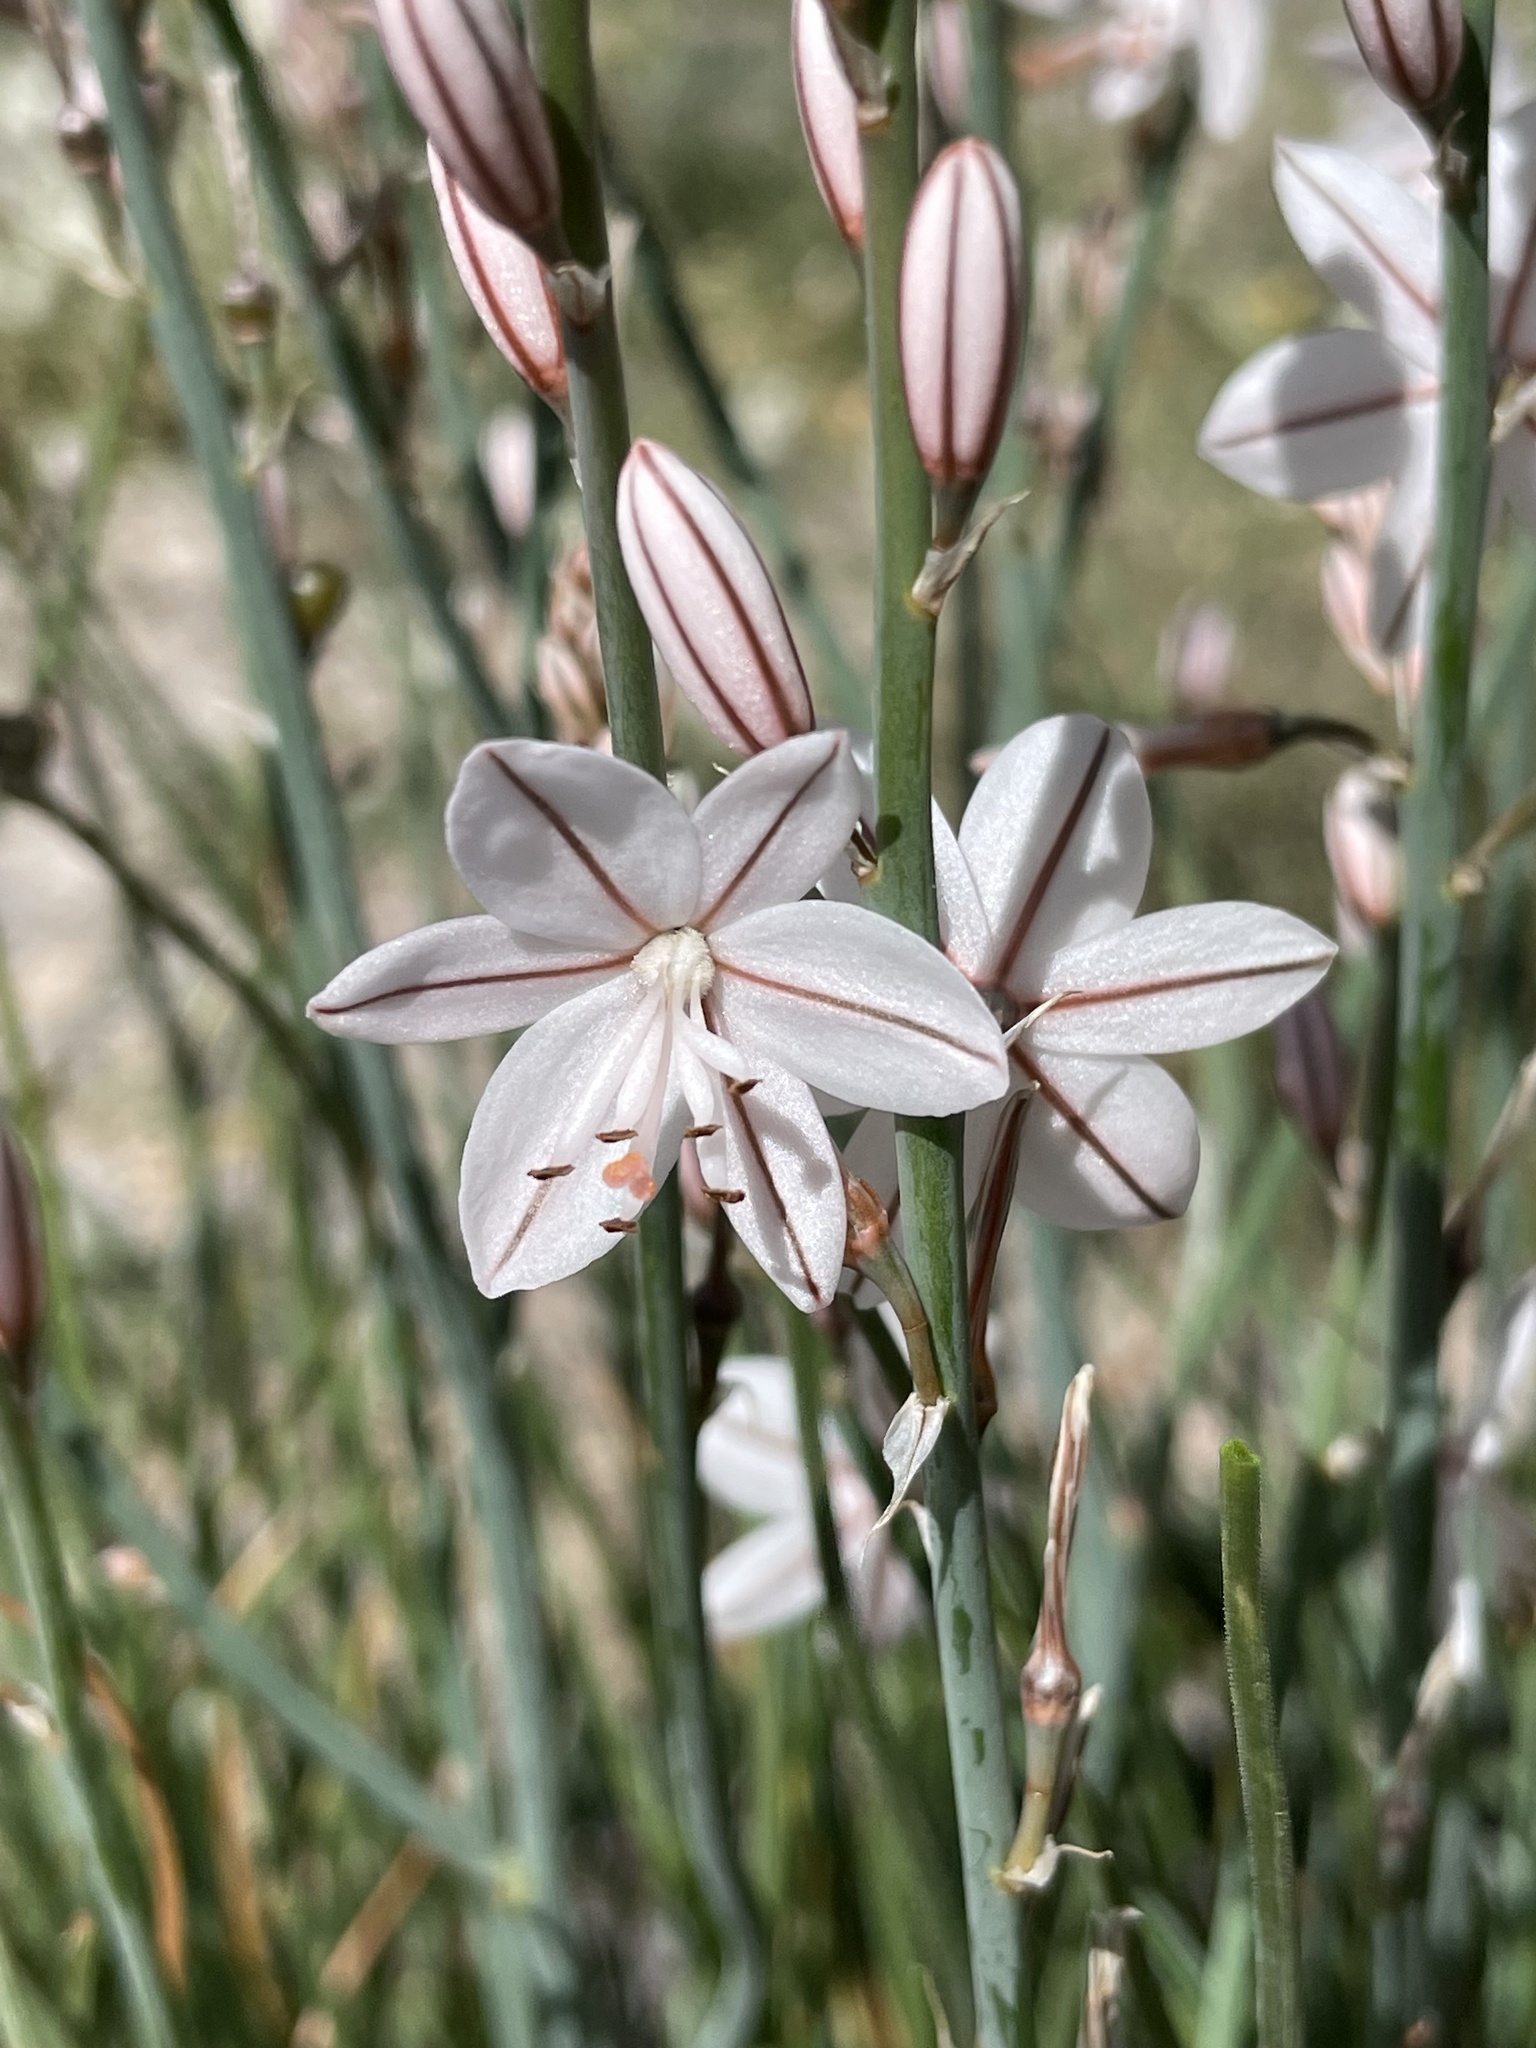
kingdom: Plantae
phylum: Tracheophyta
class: Liliopsida
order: Asparagales
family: Asphodelaceae
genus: Asphodelus
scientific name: Asphodelus fistulosus
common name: Onionweed
